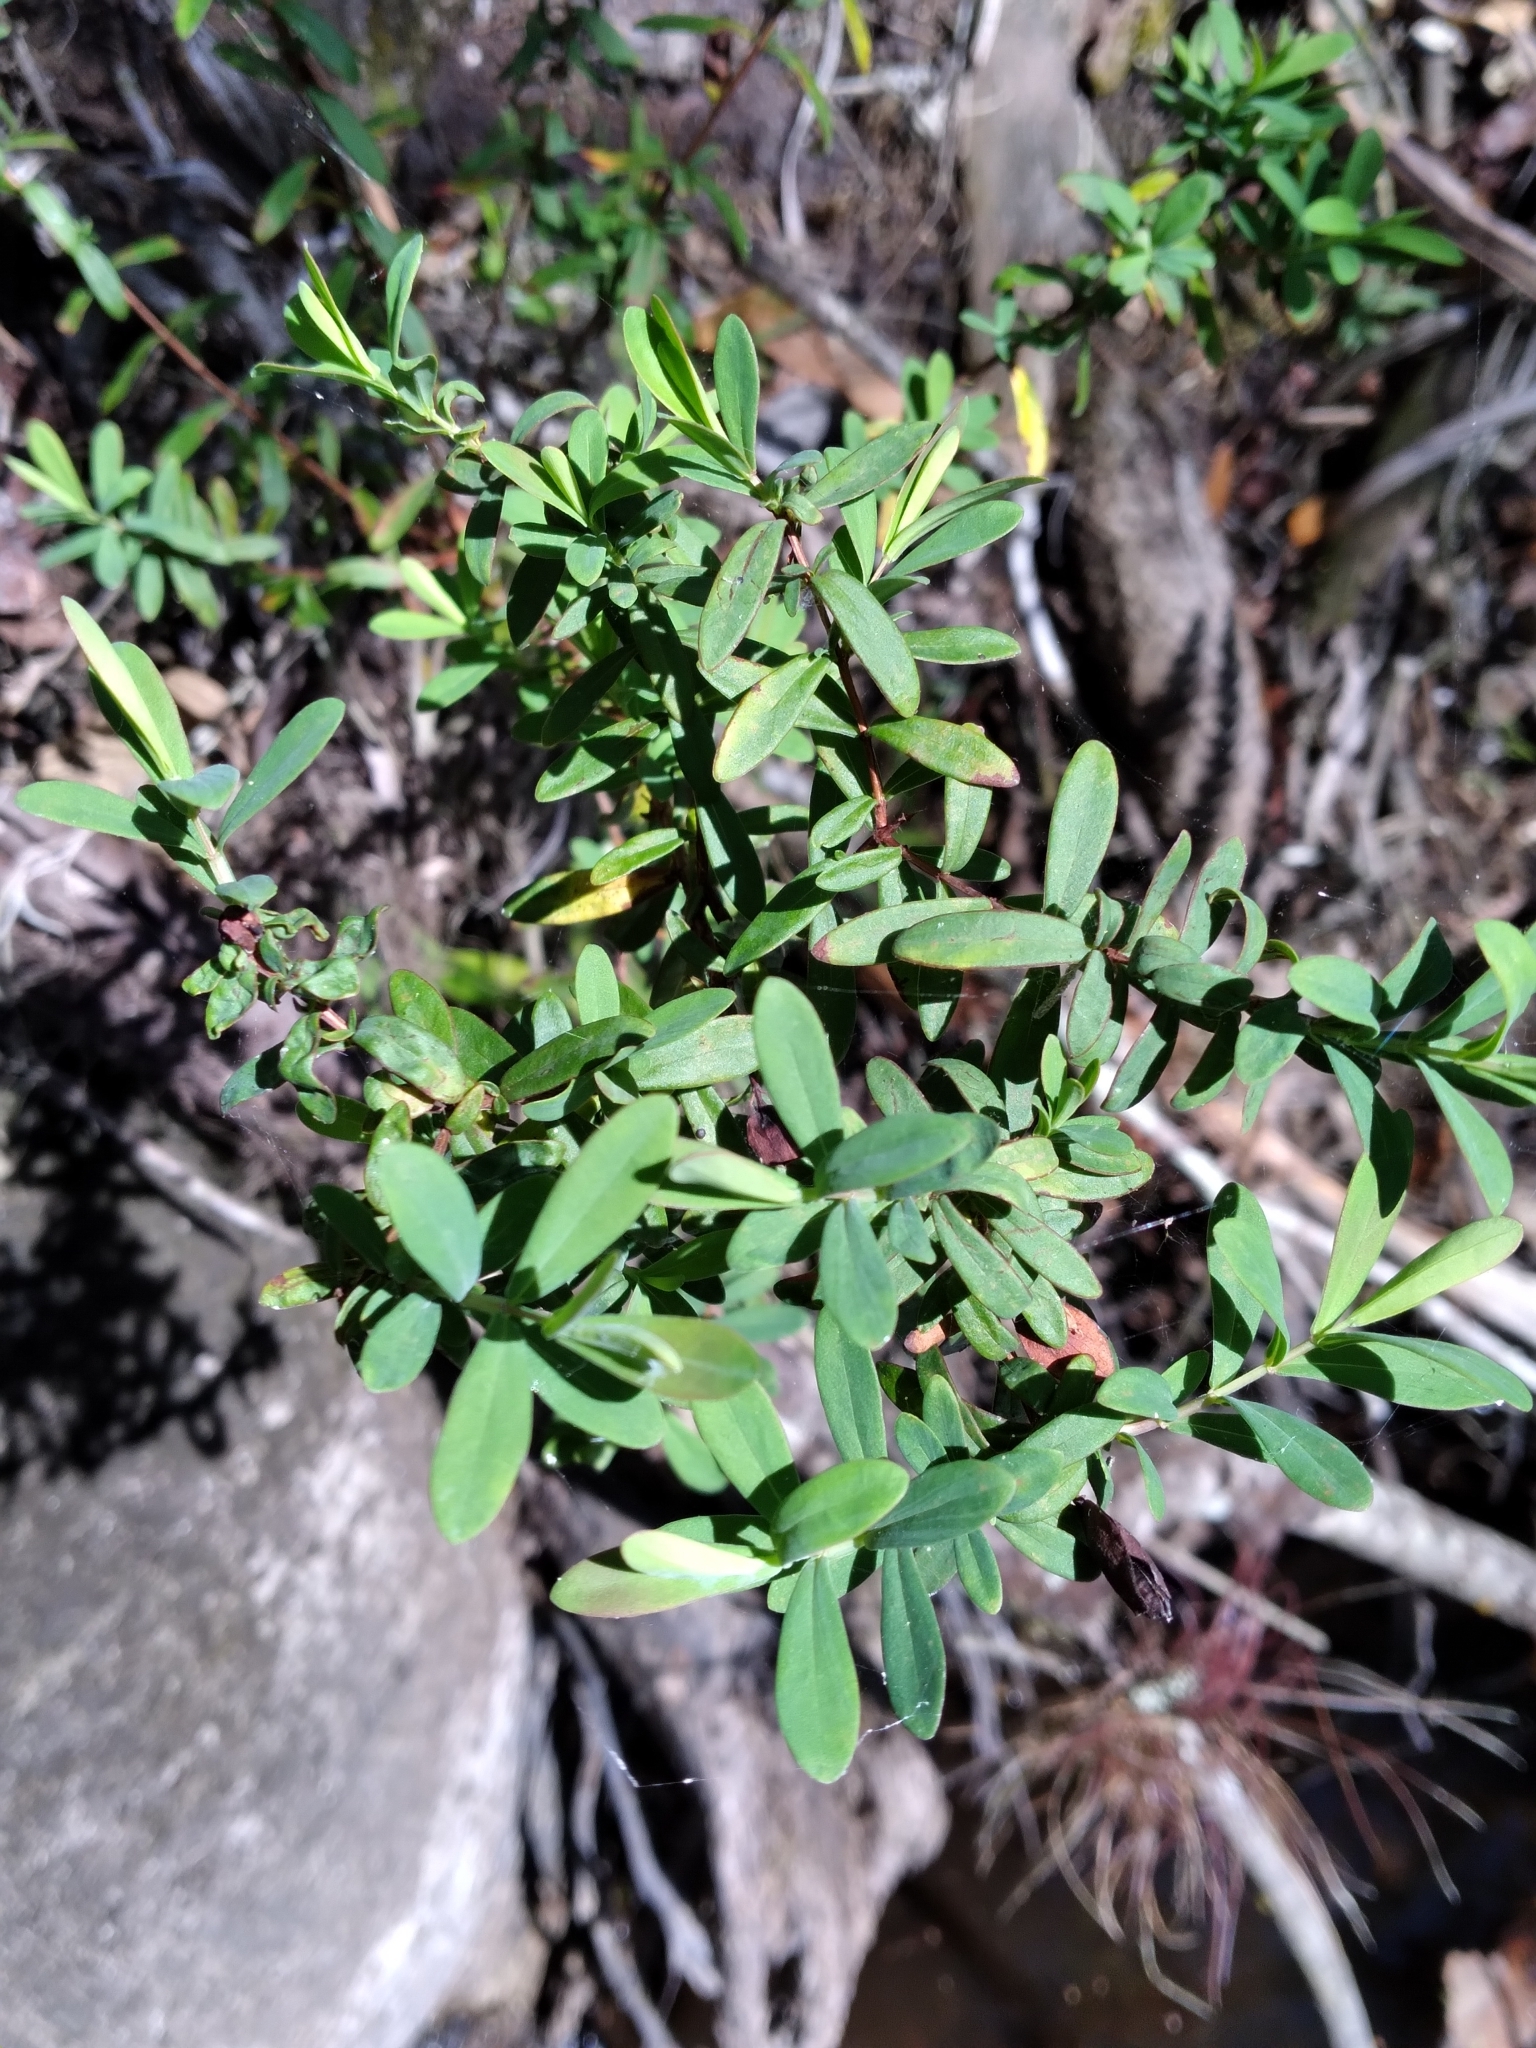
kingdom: Plantae
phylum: Tracheophyta
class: Magnoliopsida
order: Malpighiales
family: Hypericaceae
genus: Hypericum
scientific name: Hypericum hypericoides
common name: St. andrew's cross
